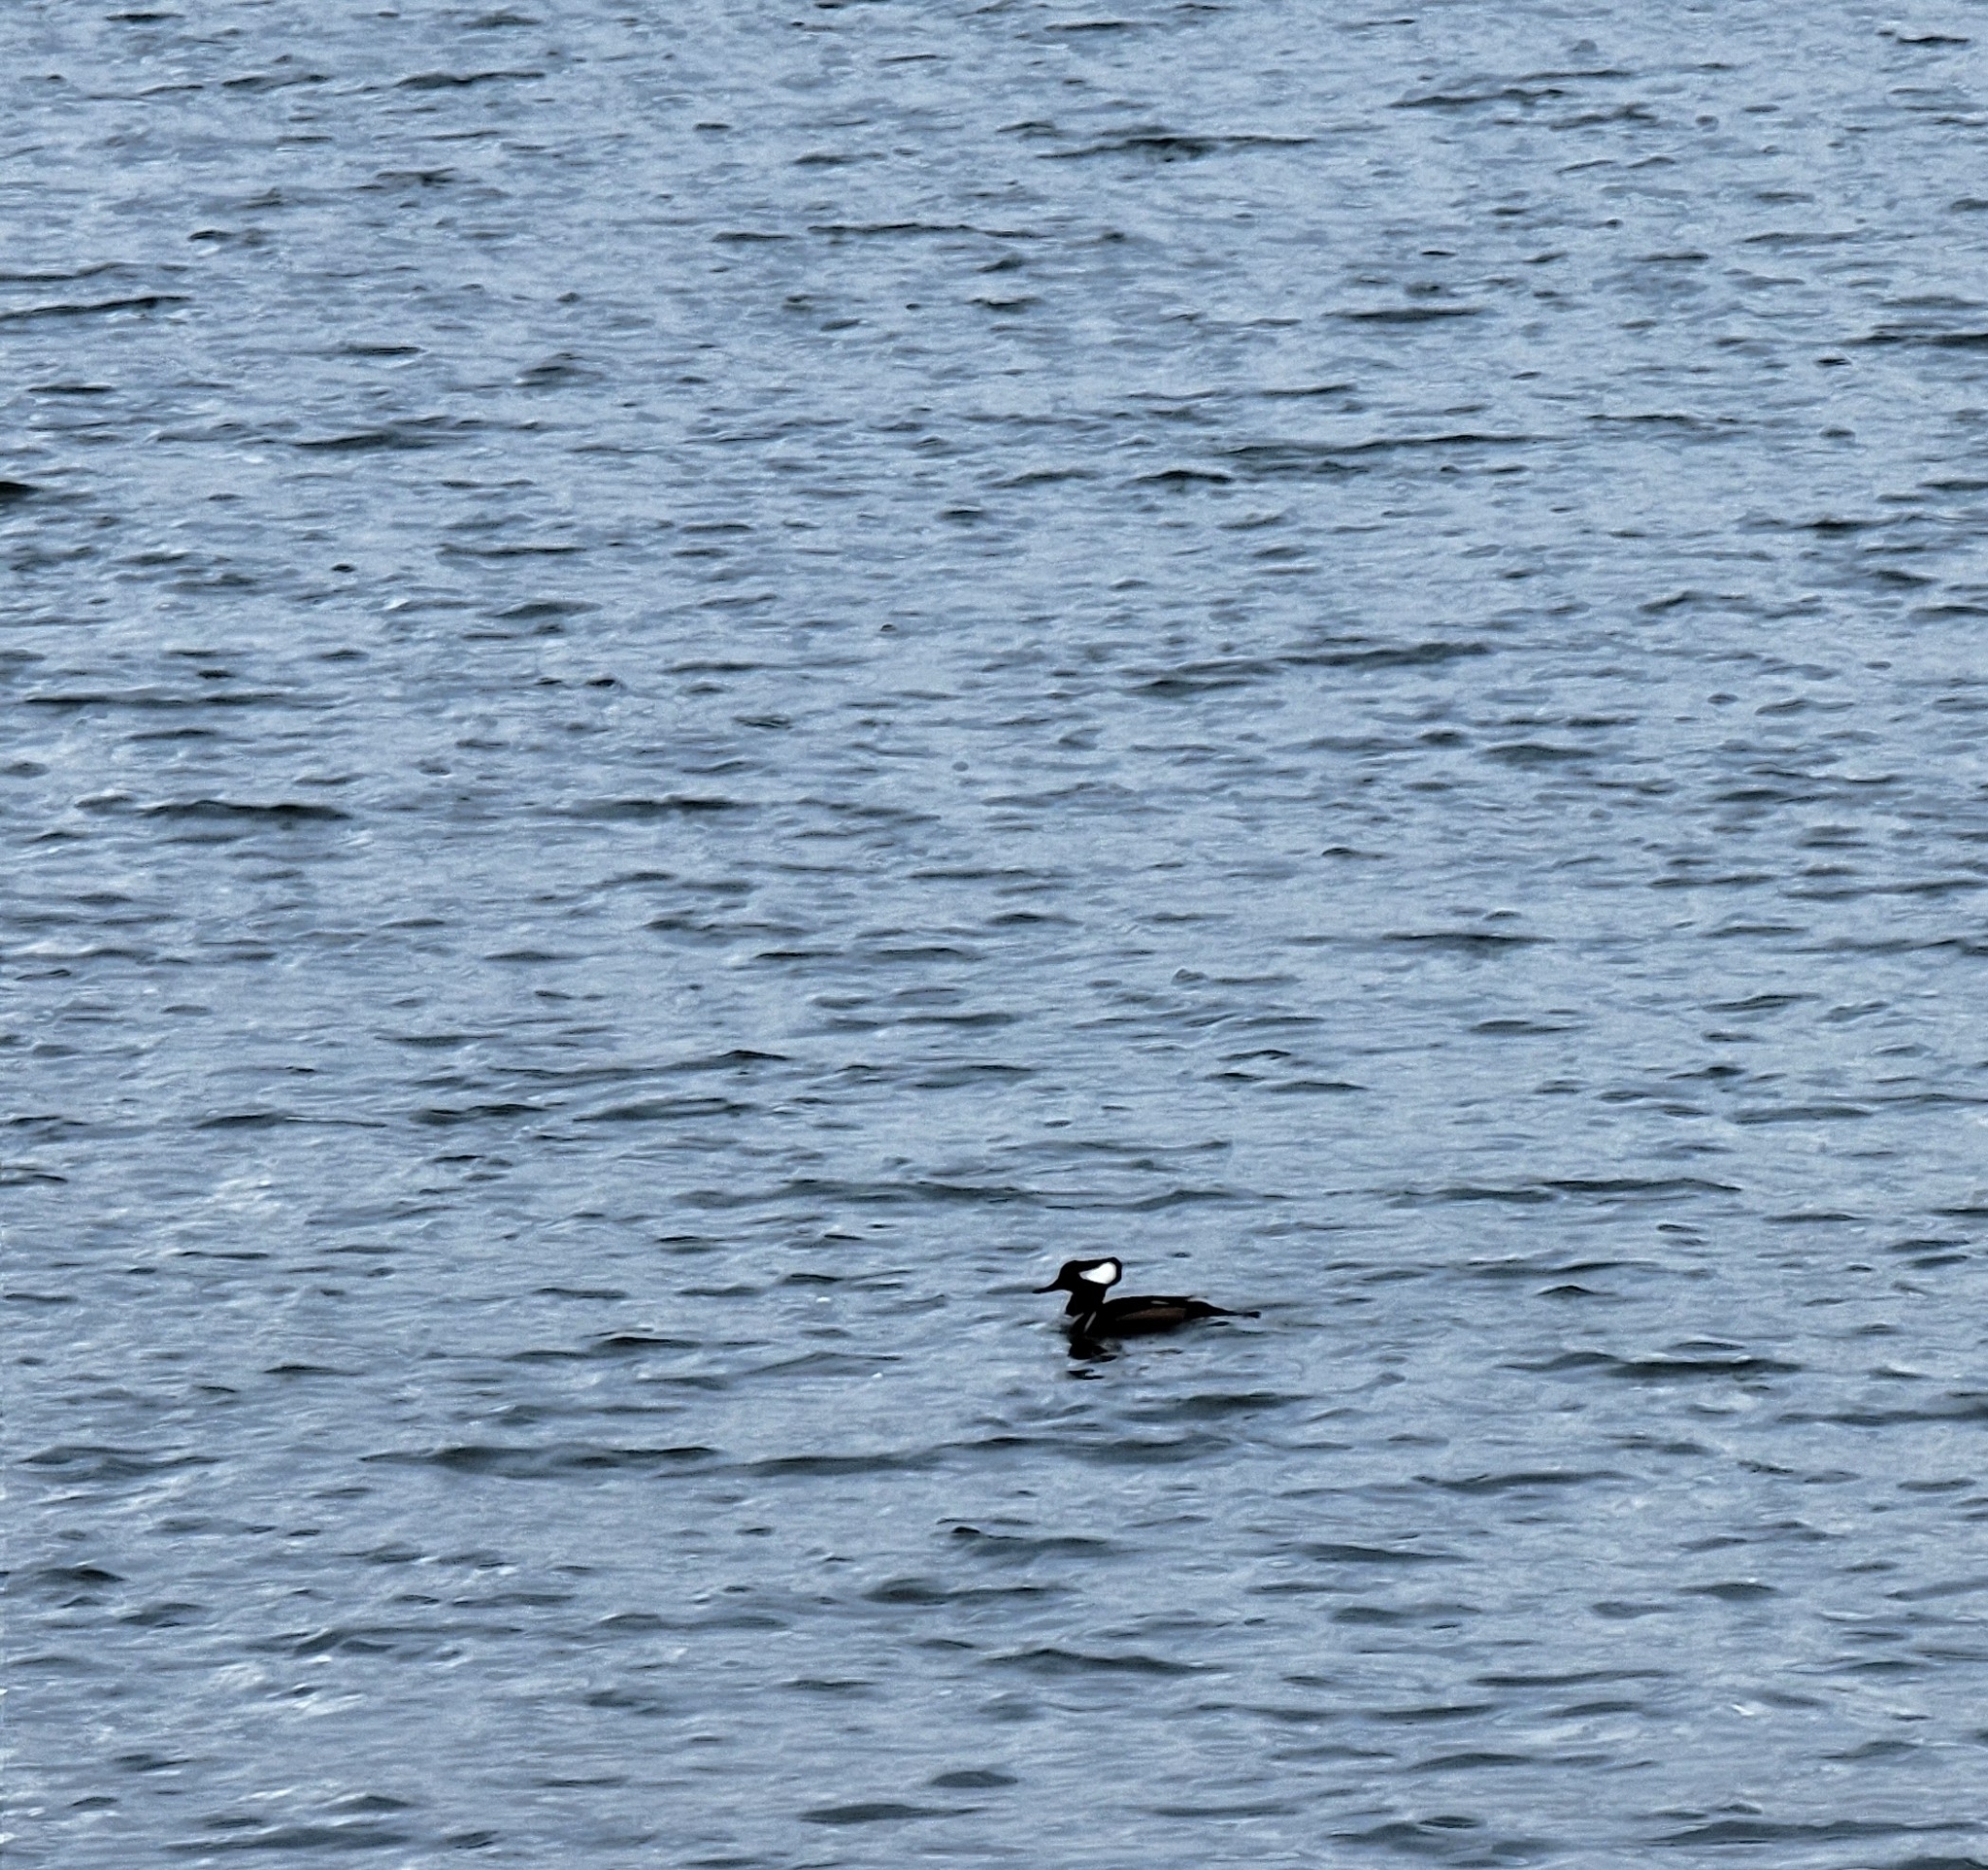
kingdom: Animalia
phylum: Chordata
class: Aves
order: Anseriformes
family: Anatidae
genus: Lophodytes
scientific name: Lophodytes cucullatus
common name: Hooded merganser
